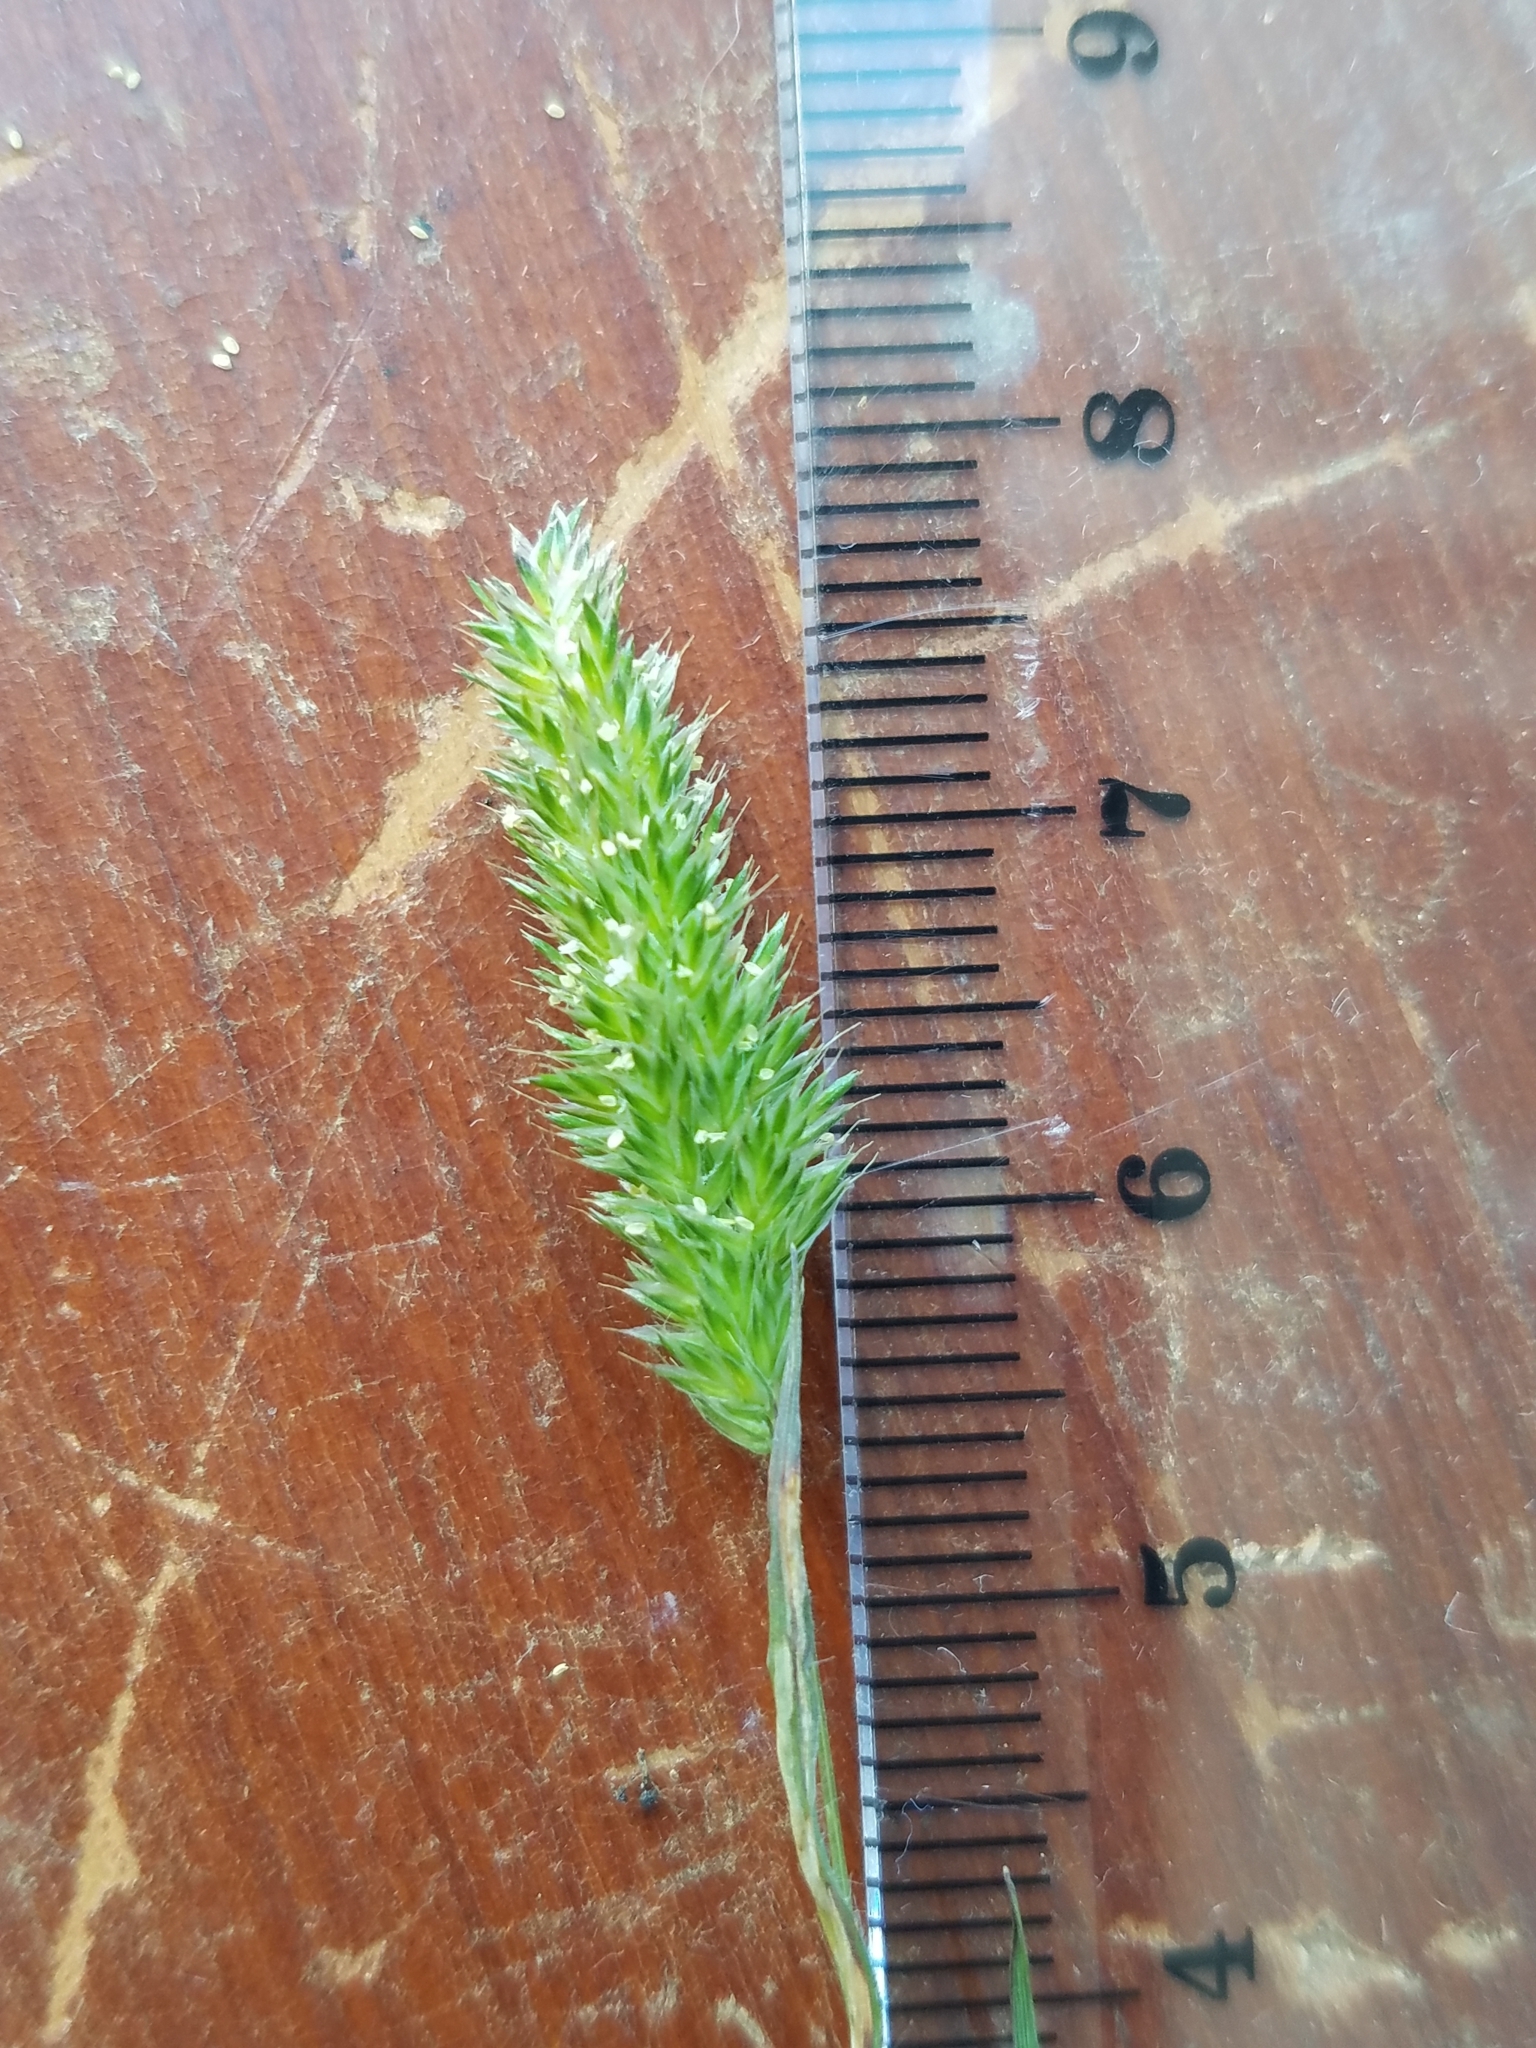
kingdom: Plantae
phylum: Tracheophyta
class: Liliopsida
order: Poales
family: Poaceae
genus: Rostraria
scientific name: Rostraria cristata
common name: Mediterranean hair-grass
